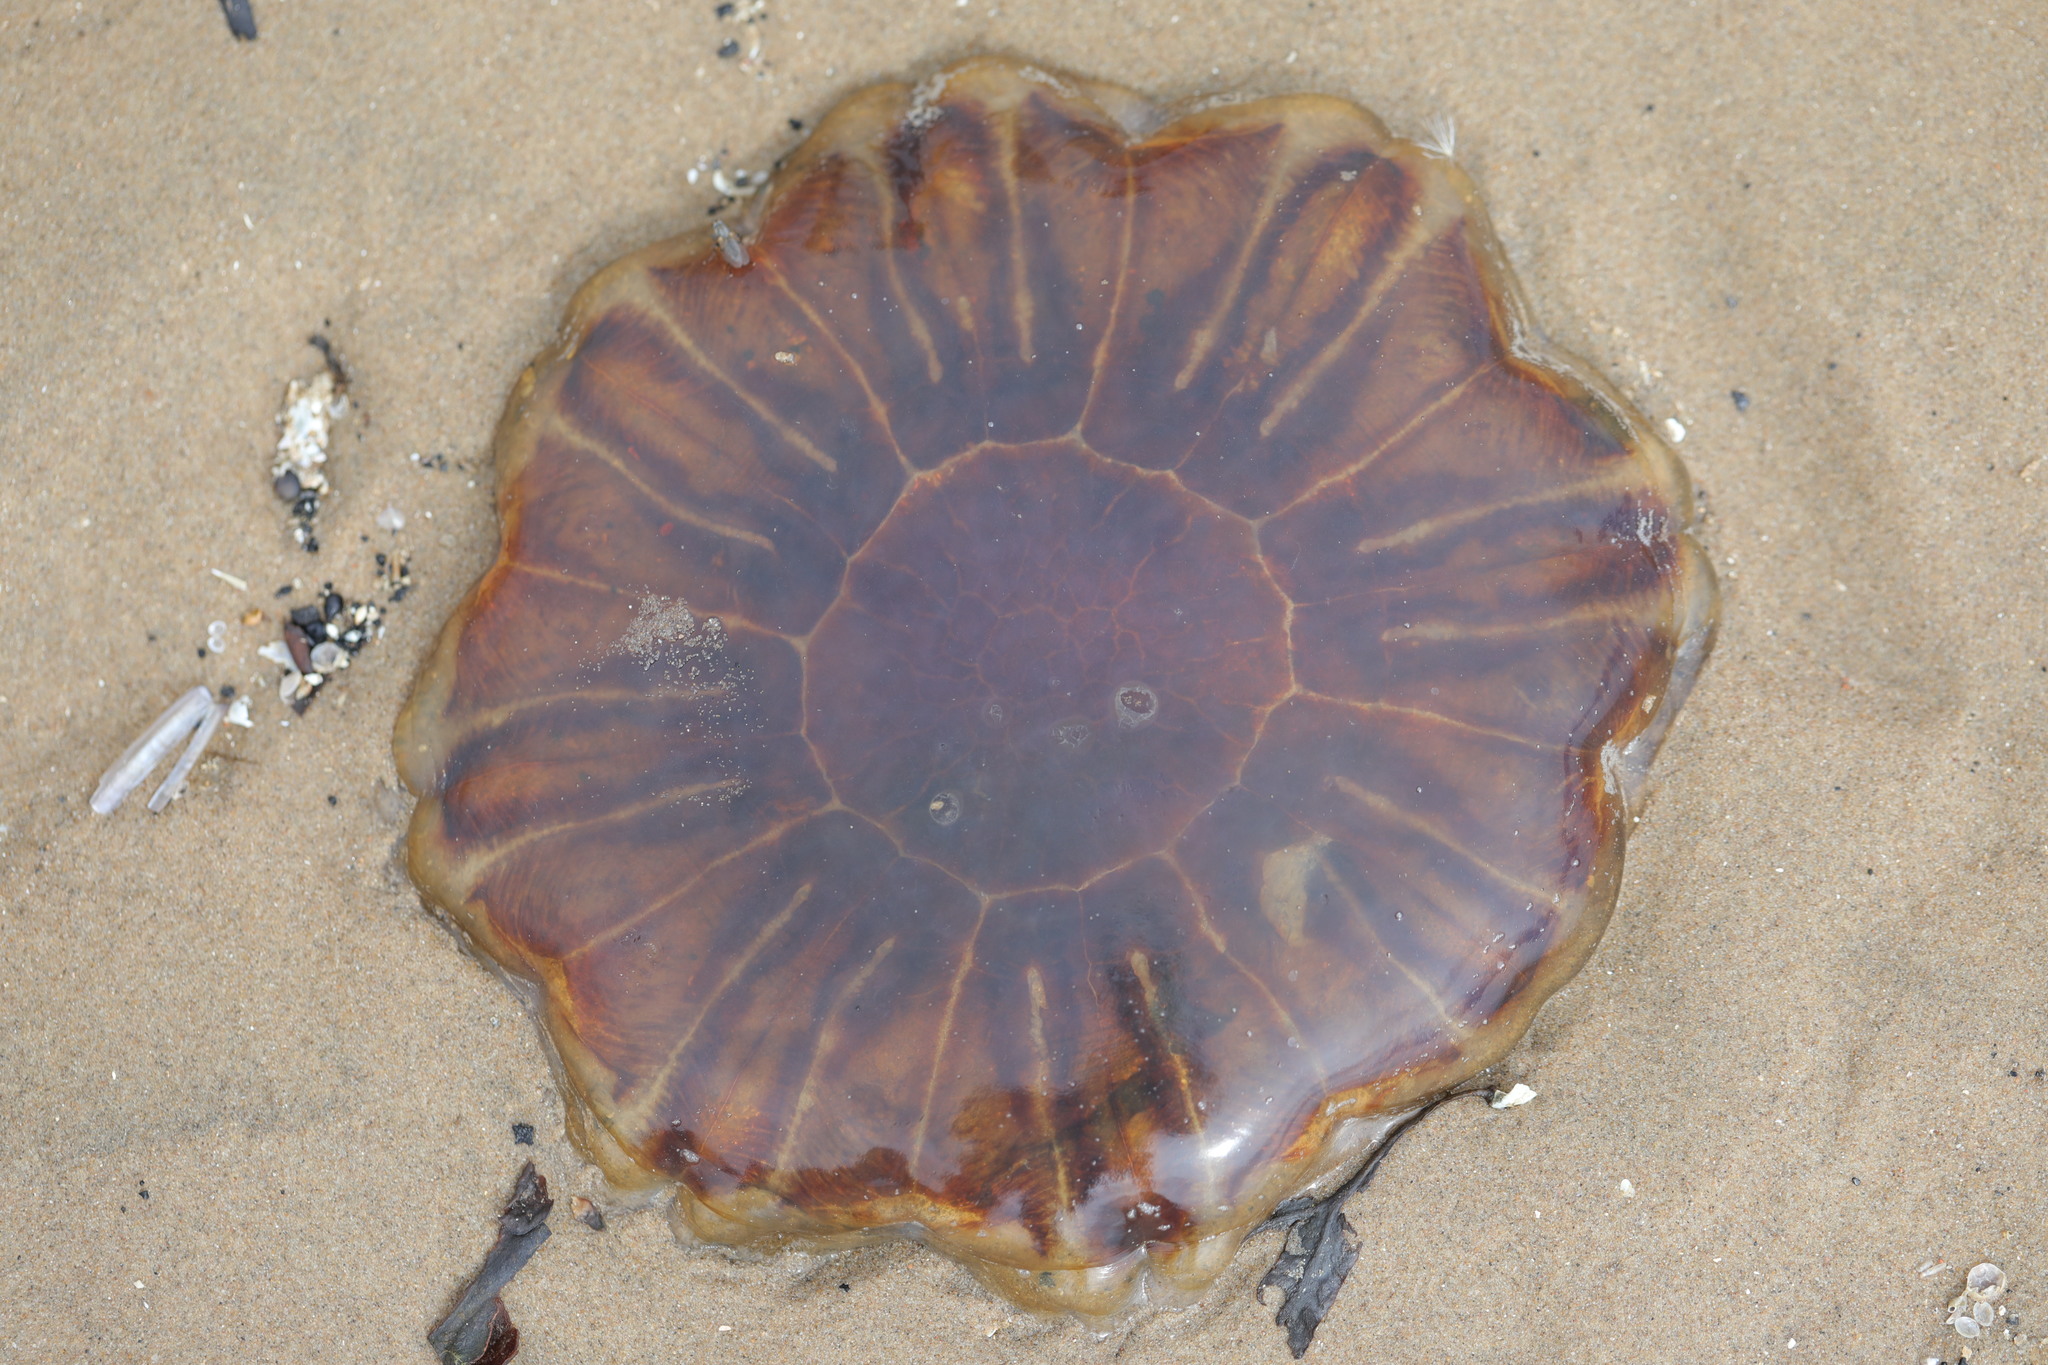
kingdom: Animalia
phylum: Cnidaria
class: Scyphozoa
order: Semaeostomeae
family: Cyaneidae
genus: Cyanea
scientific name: Cyanea capillata
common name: Lion's mane jellyfish
